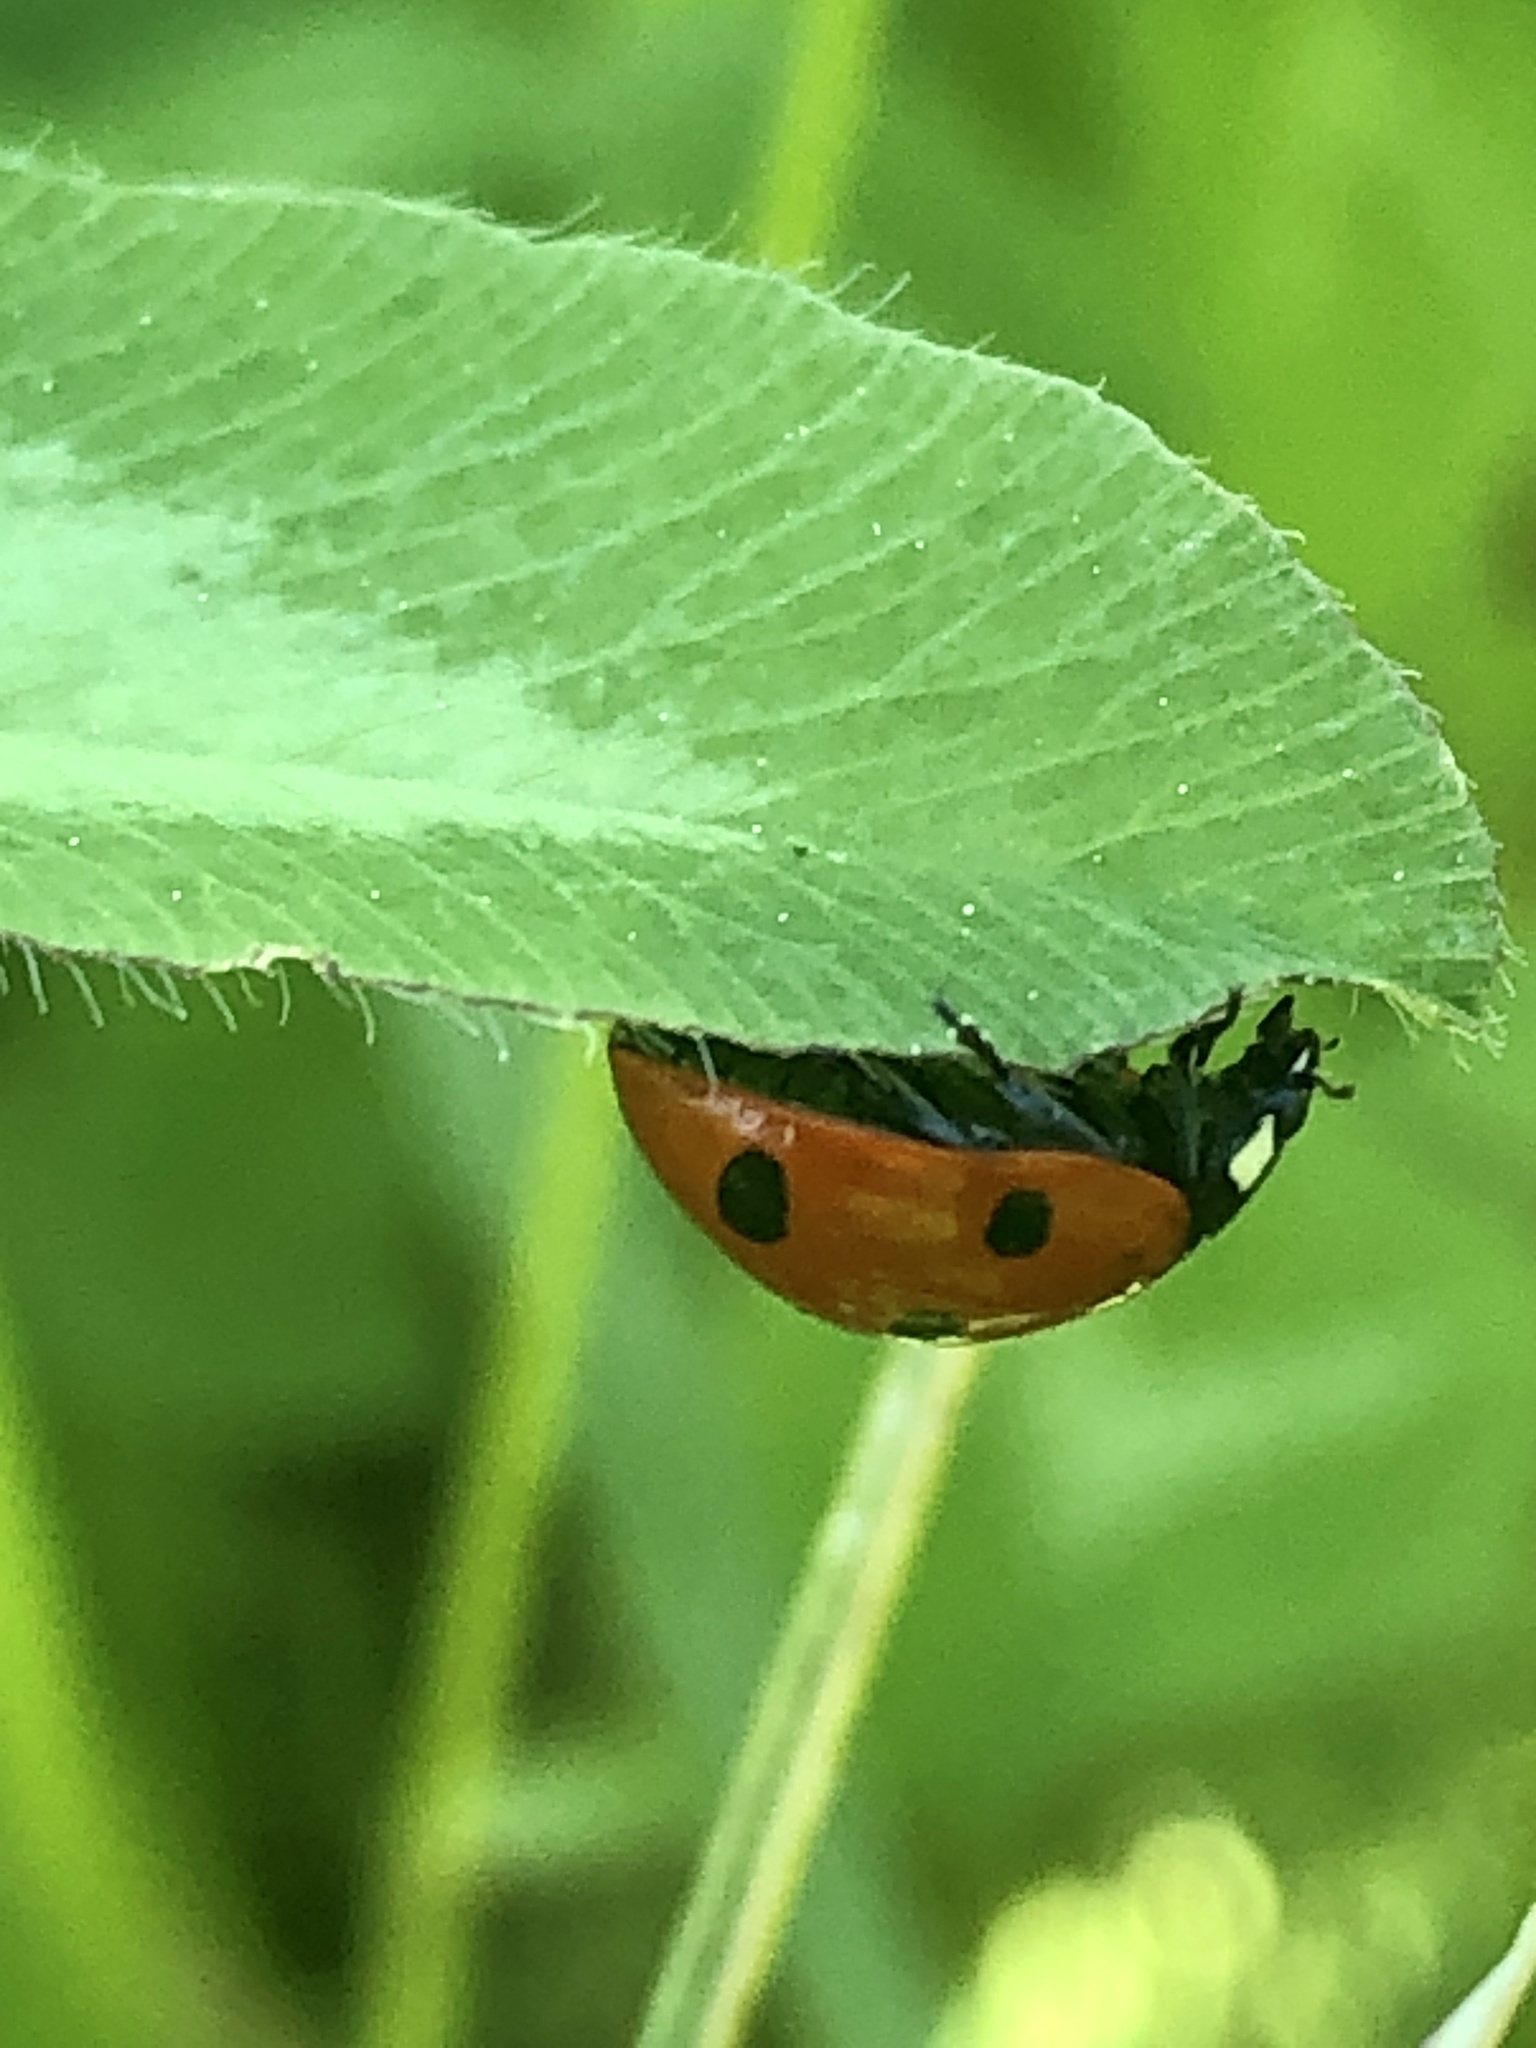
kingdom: Animalia
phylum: Arthropoda
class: Insecta
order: Coleoptera
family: Coccinellidae
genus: Coccinella
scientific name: Coccinella septempunctata
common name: Sevenspotted lady beetle
